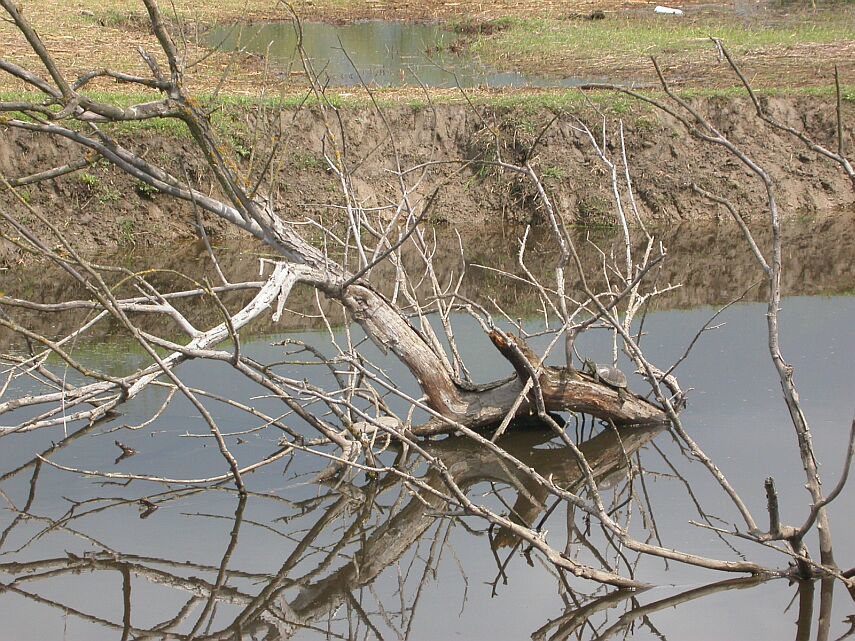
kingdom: Animalia
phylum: Chordata
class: Testudines
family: Emydidae
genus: Emys
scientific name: Emys orbicularis
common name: European pond turtle
